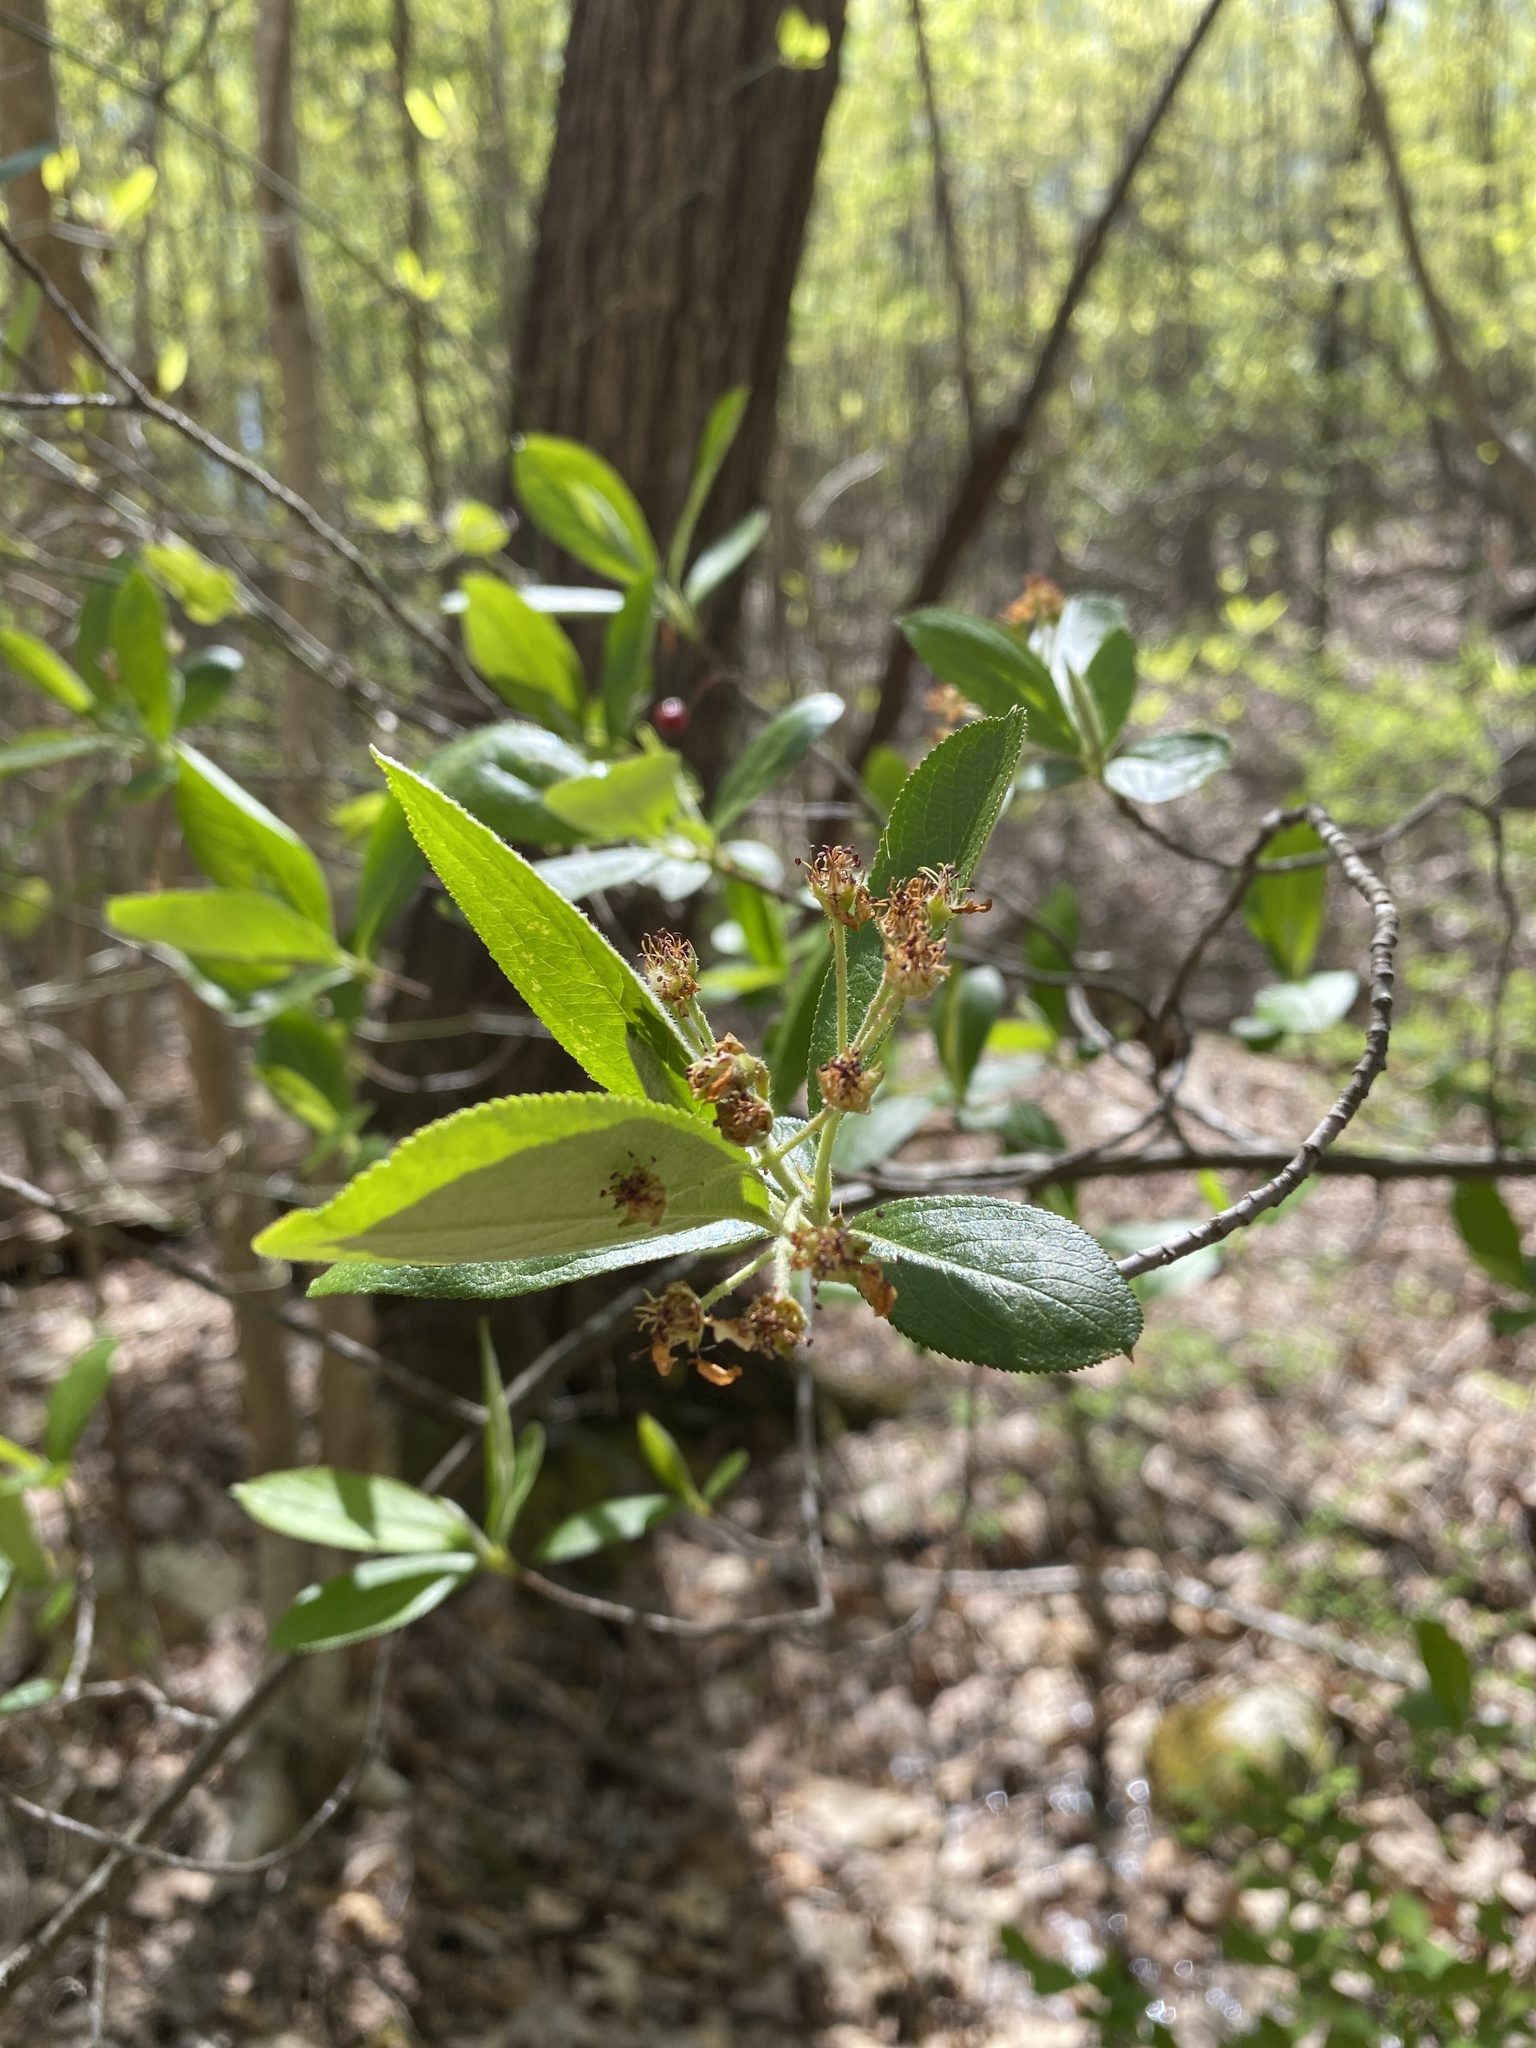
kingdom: Plantae
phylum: Tracheophyta
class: Magnoliopsida
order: Rosales
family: Rosaceae
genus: Aronia
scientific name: Aronia arbutifolia
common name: Red chokeberry
